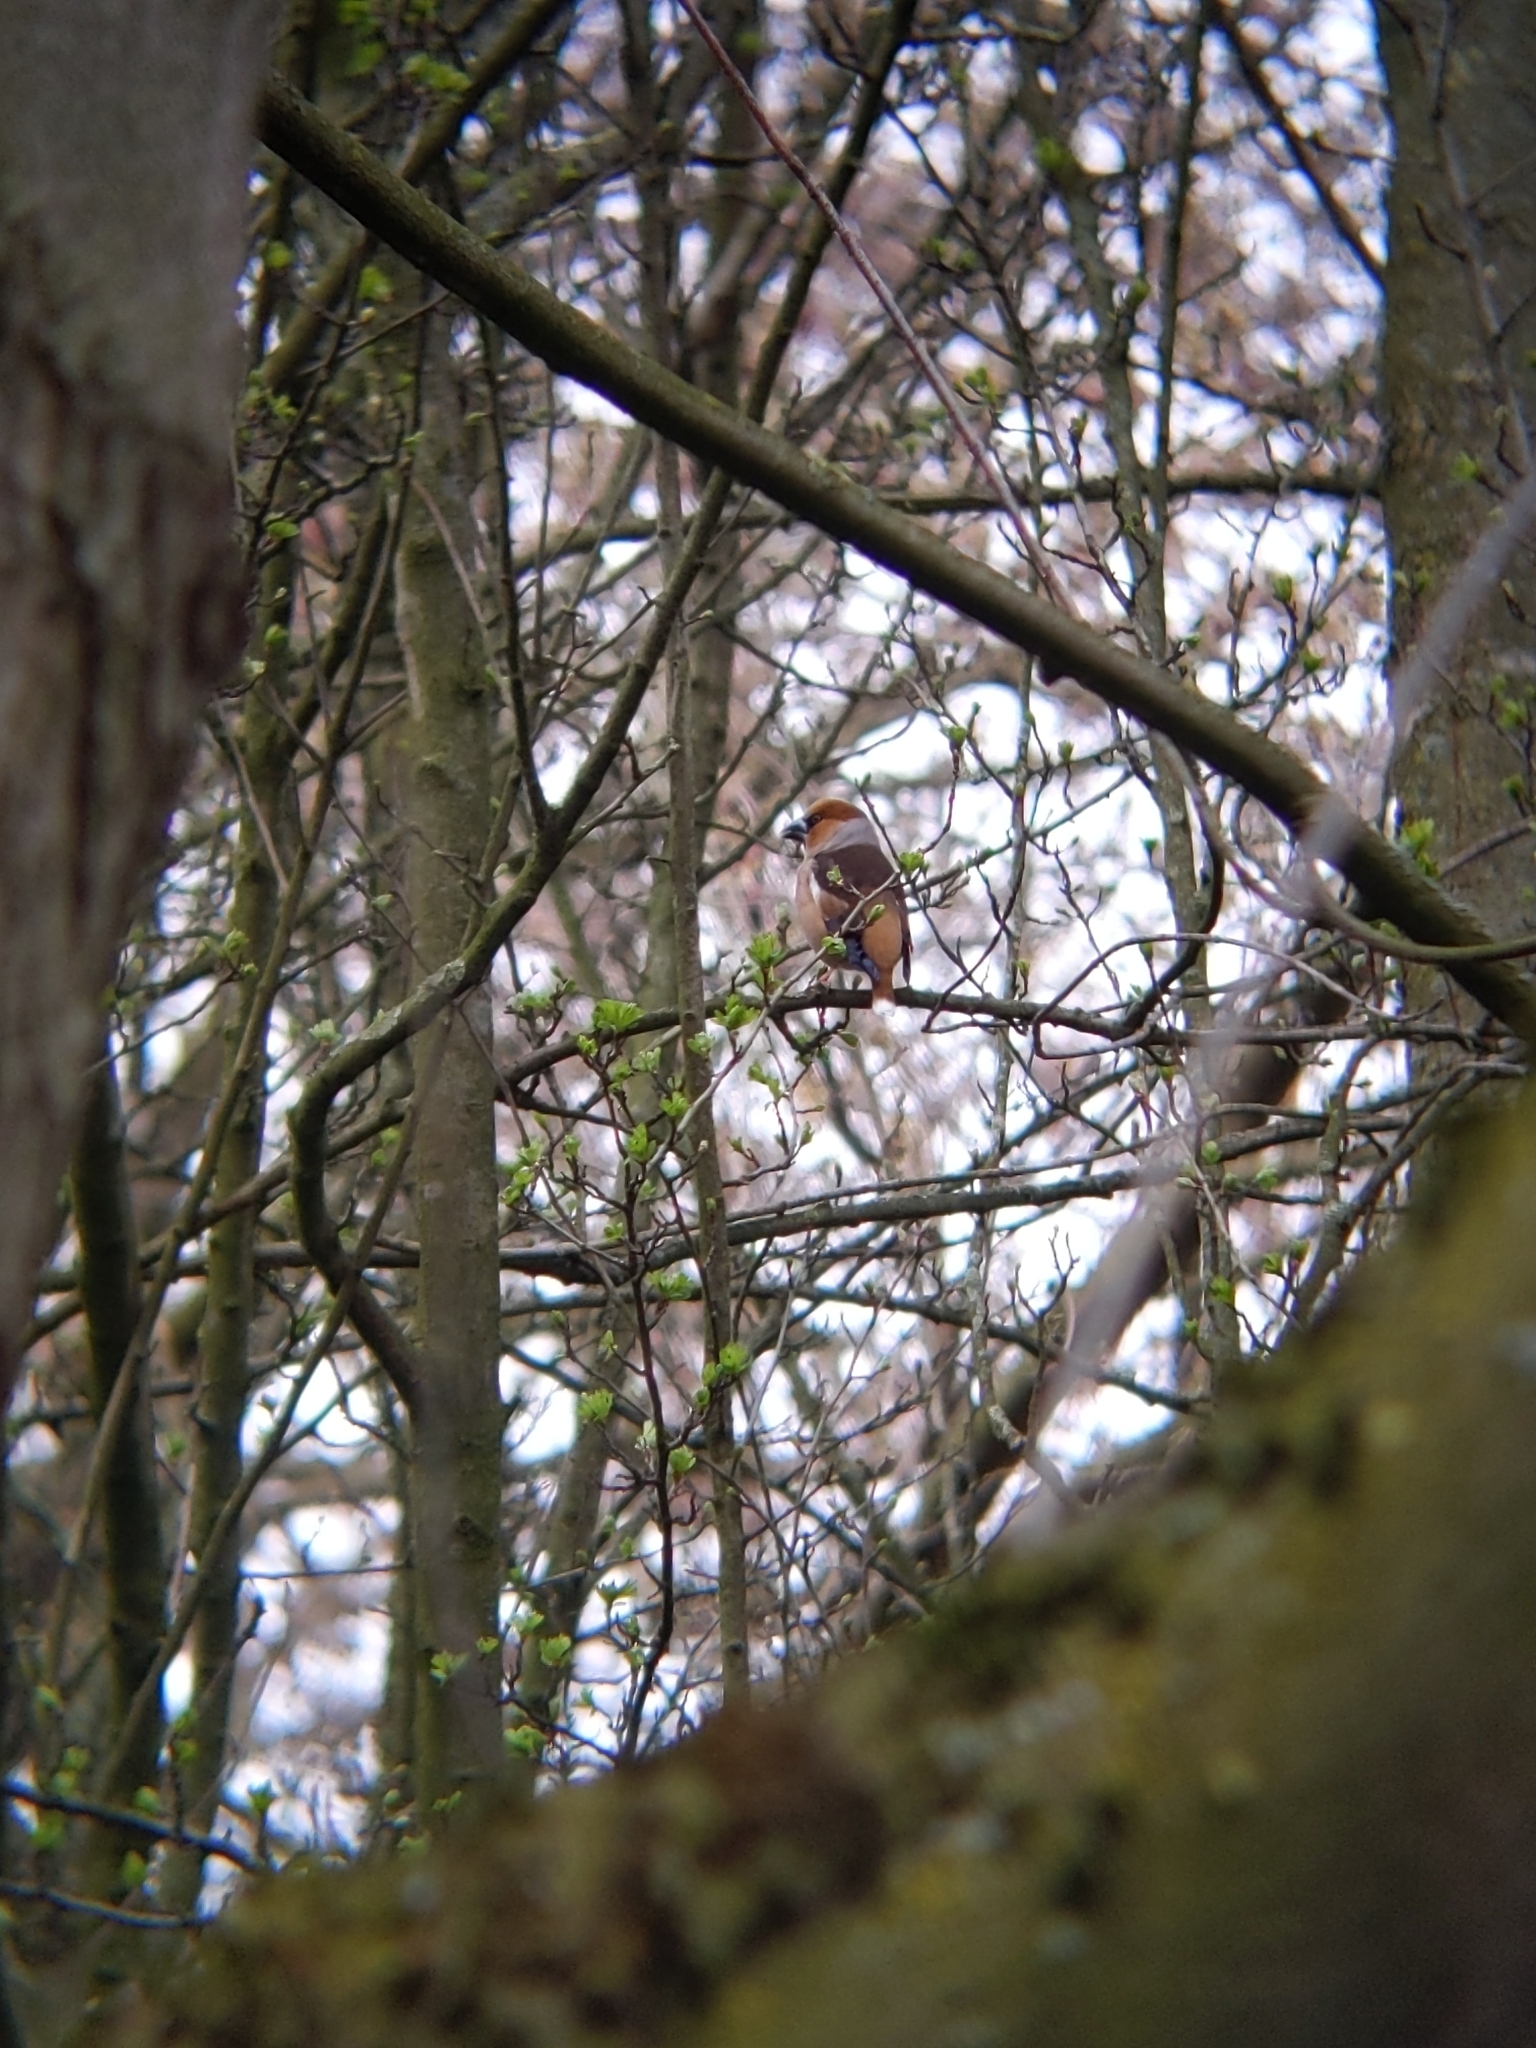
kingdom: Animalia
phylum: Chordata
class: Aves
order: Passeriformes
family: Fringillidae
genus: Coccothraustes
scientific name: Coccothraustes coccothraustes
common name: Hawfinch
